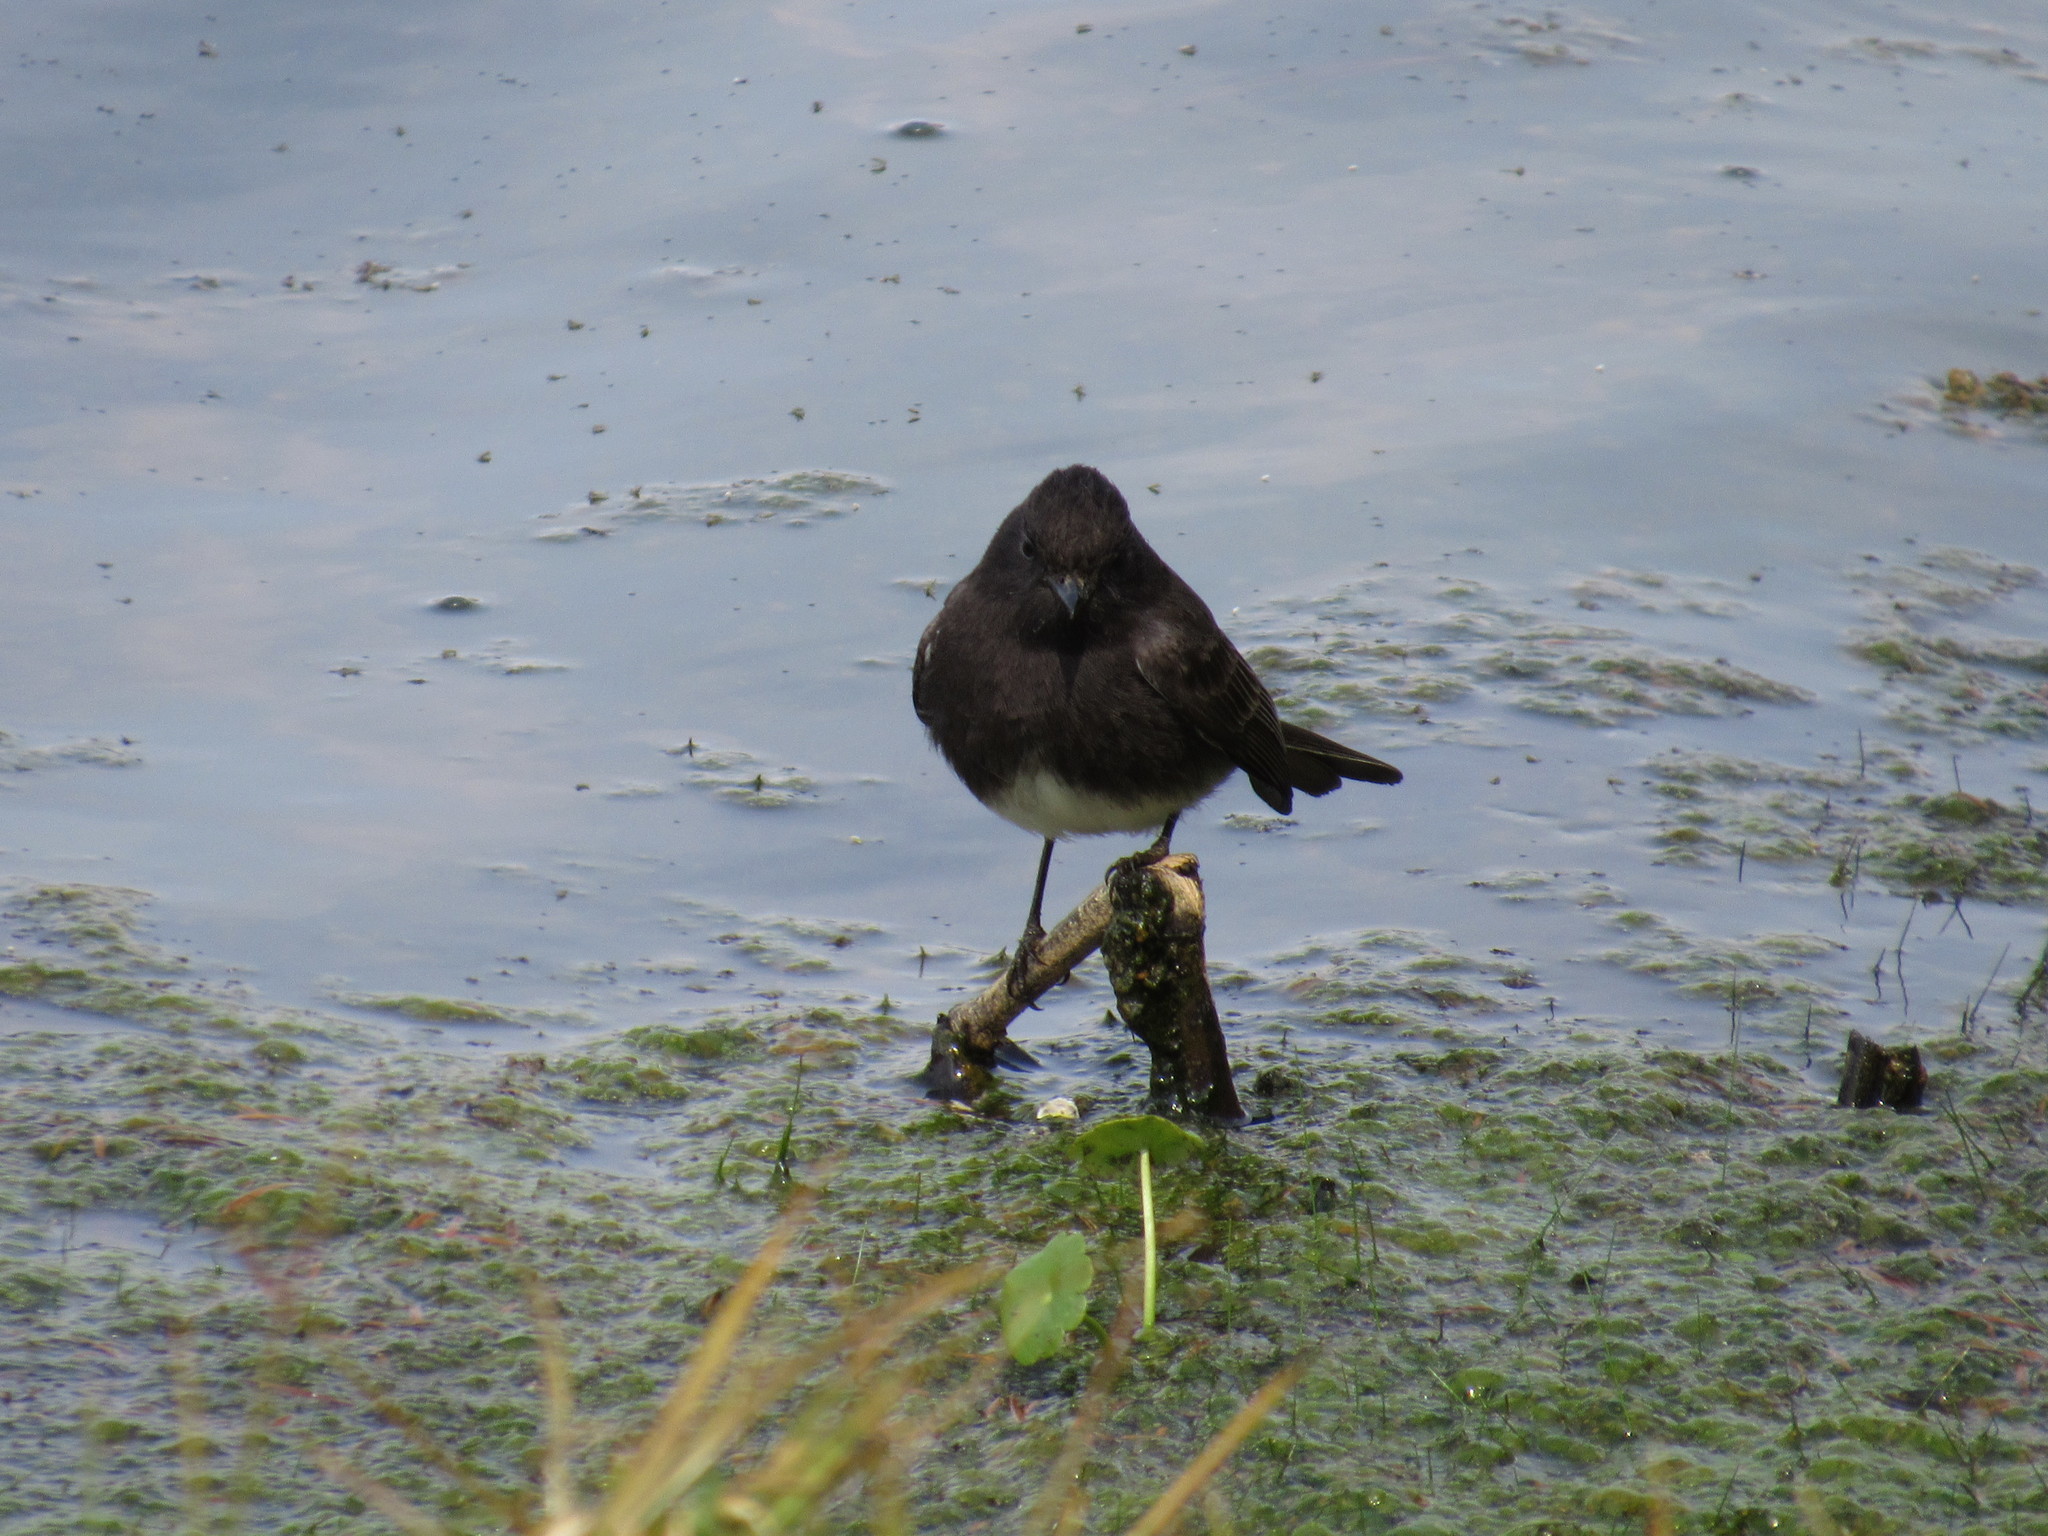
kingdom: Animalia
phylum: Chordata
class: Aves
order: Passeriformes
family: Tyrannidae
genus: Sayornis
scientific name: Sayornis nigricans
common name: Black phoebe
